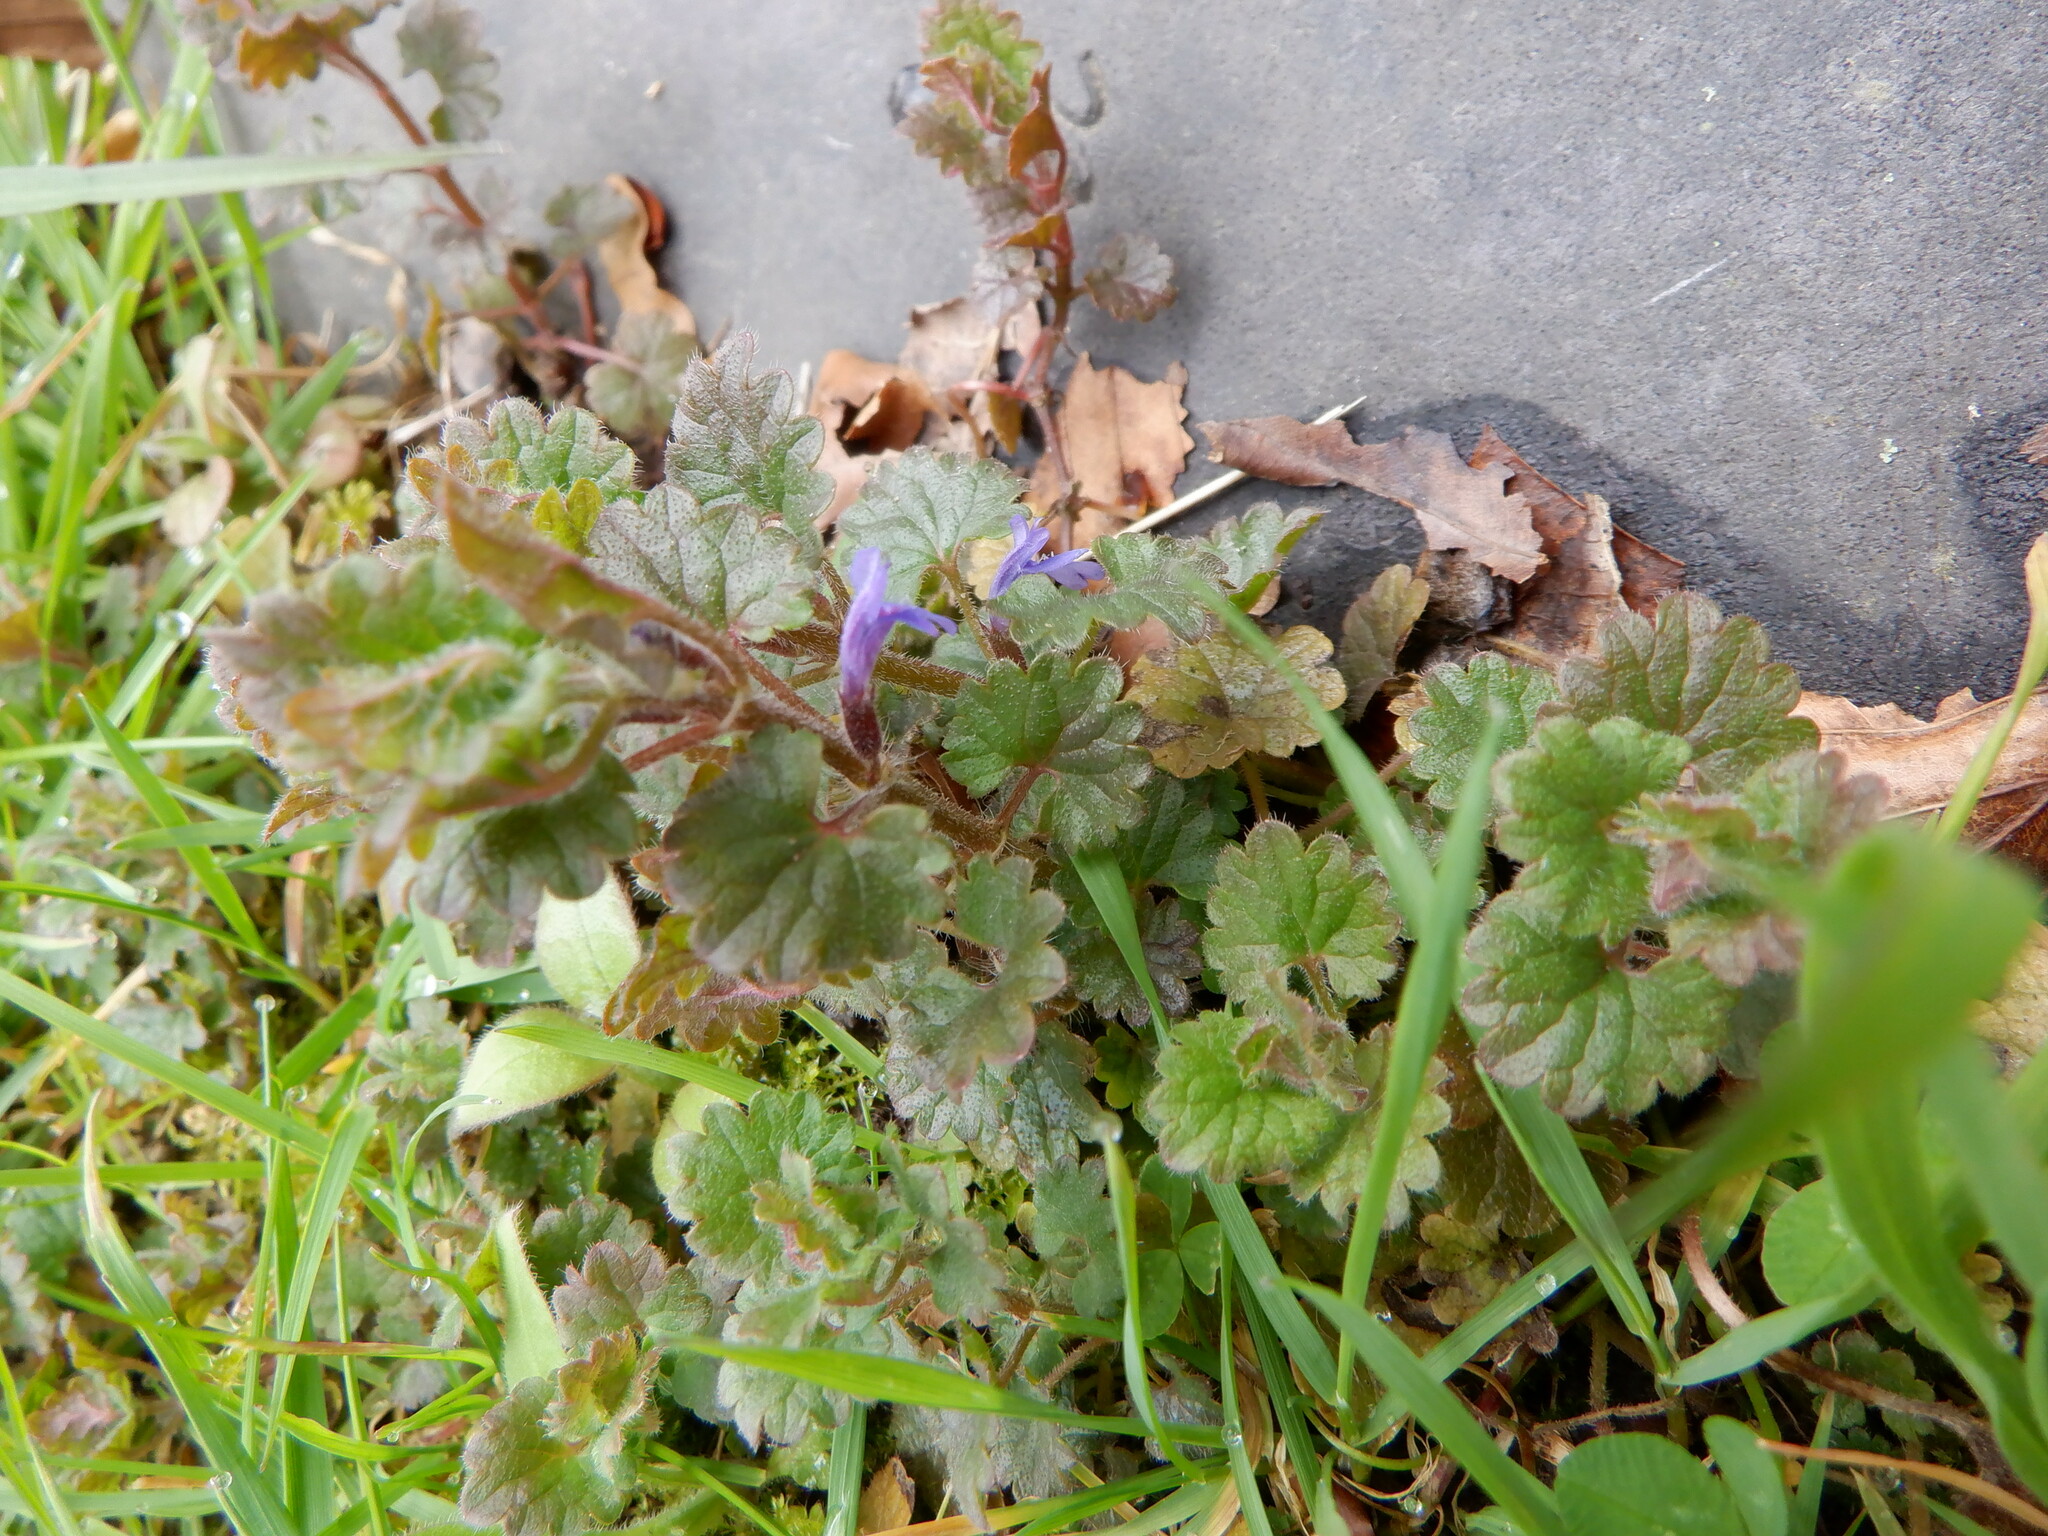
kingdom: Plantae
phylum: Tracheophyta
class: Magnoliopsida
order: Lamiales
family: Lamiaceae
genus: Glechoma
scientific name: Glechoma hederacea
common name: Ground ivy
